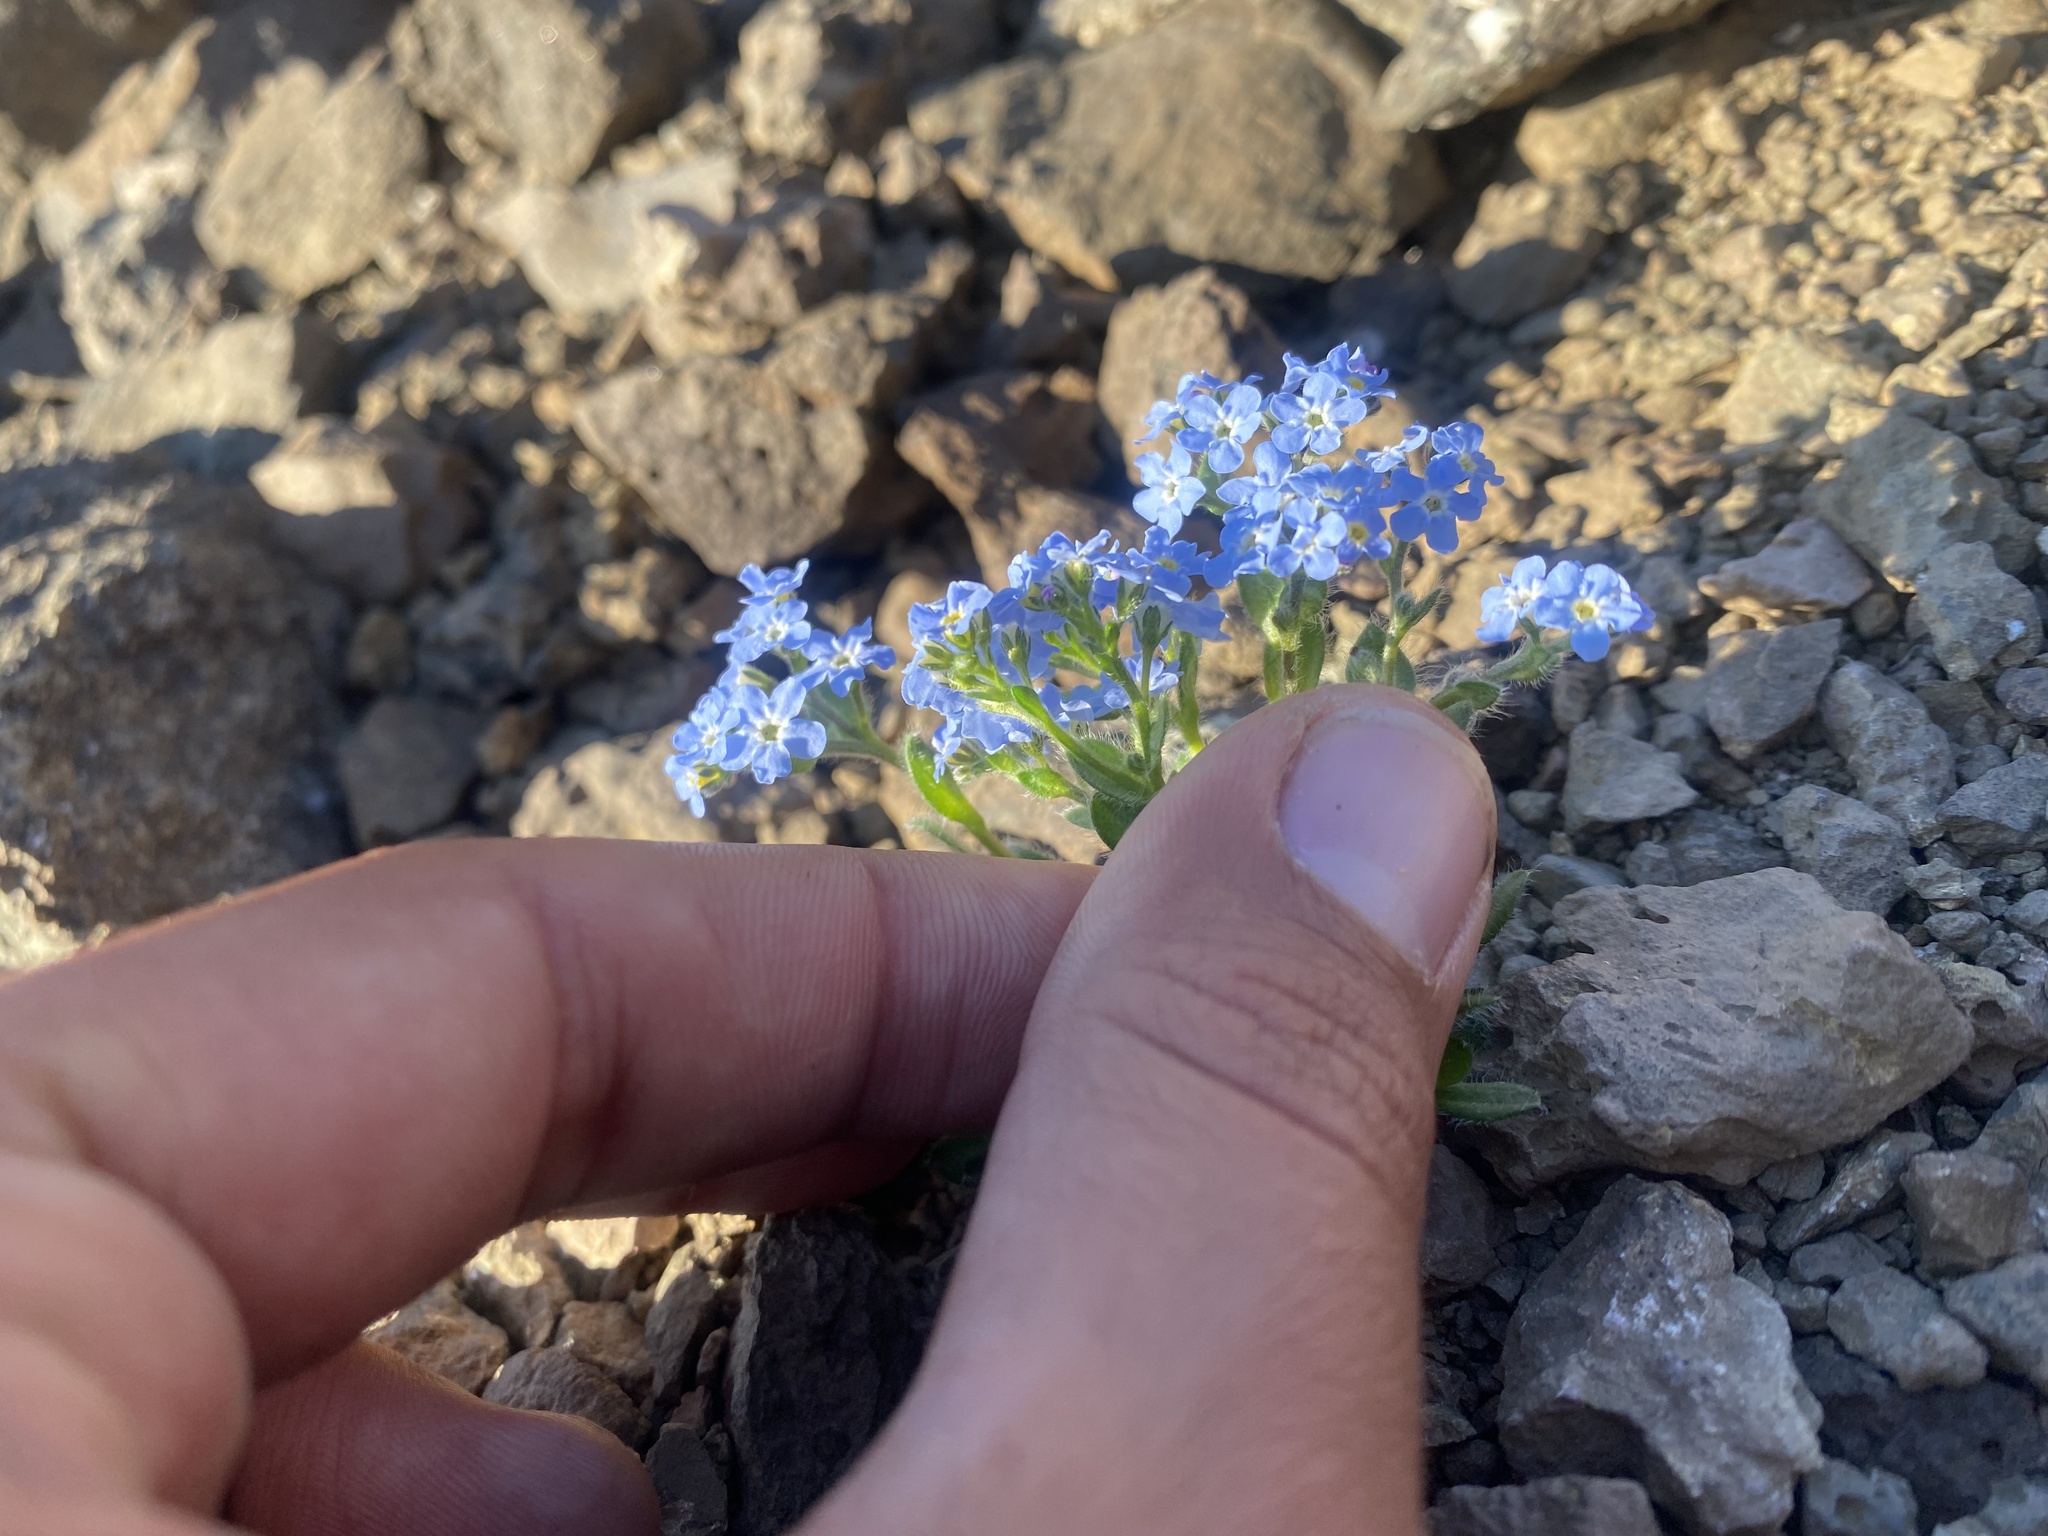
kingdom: Plantae
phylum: Tracheophyta
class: Magnoliopsida
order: Boraginales
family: Boraginaceae
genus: Myosotis
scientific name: Myosotis asiatica
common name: Asian forget-me-not
